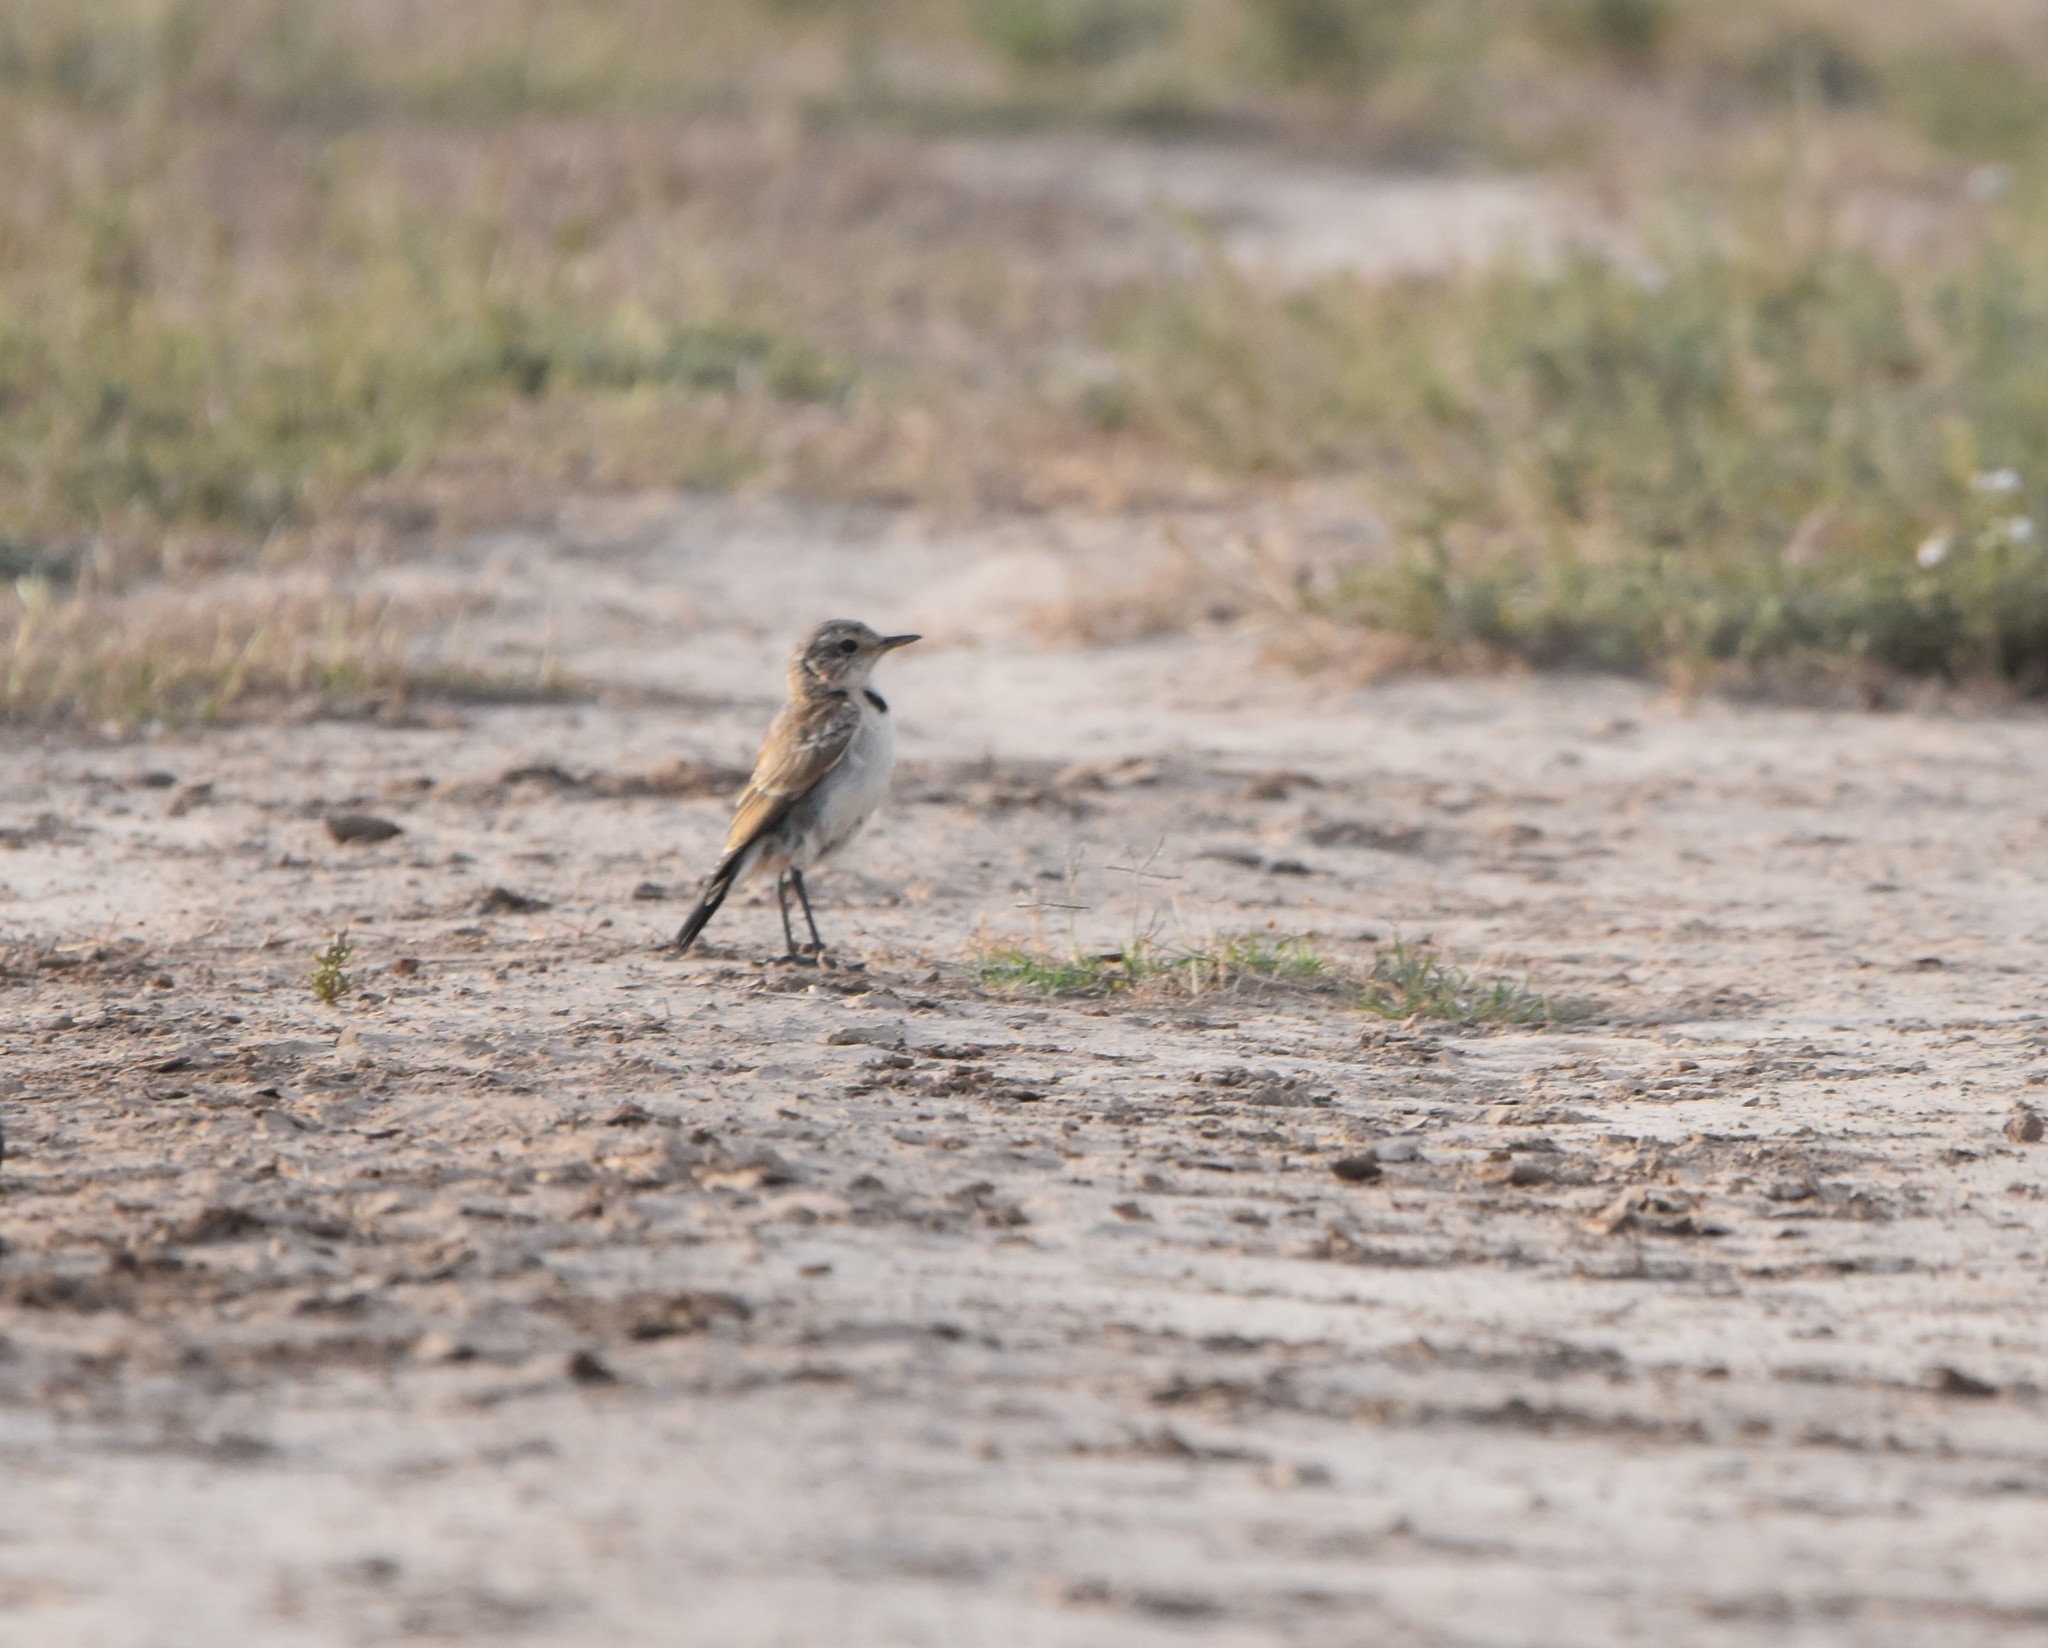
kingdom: Animalia
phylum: Chordata
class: Aves
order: Passeriformes
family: Muscicapidae
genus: Oenanthe
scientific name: Oenanthe pileata
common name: Capped wheatear
